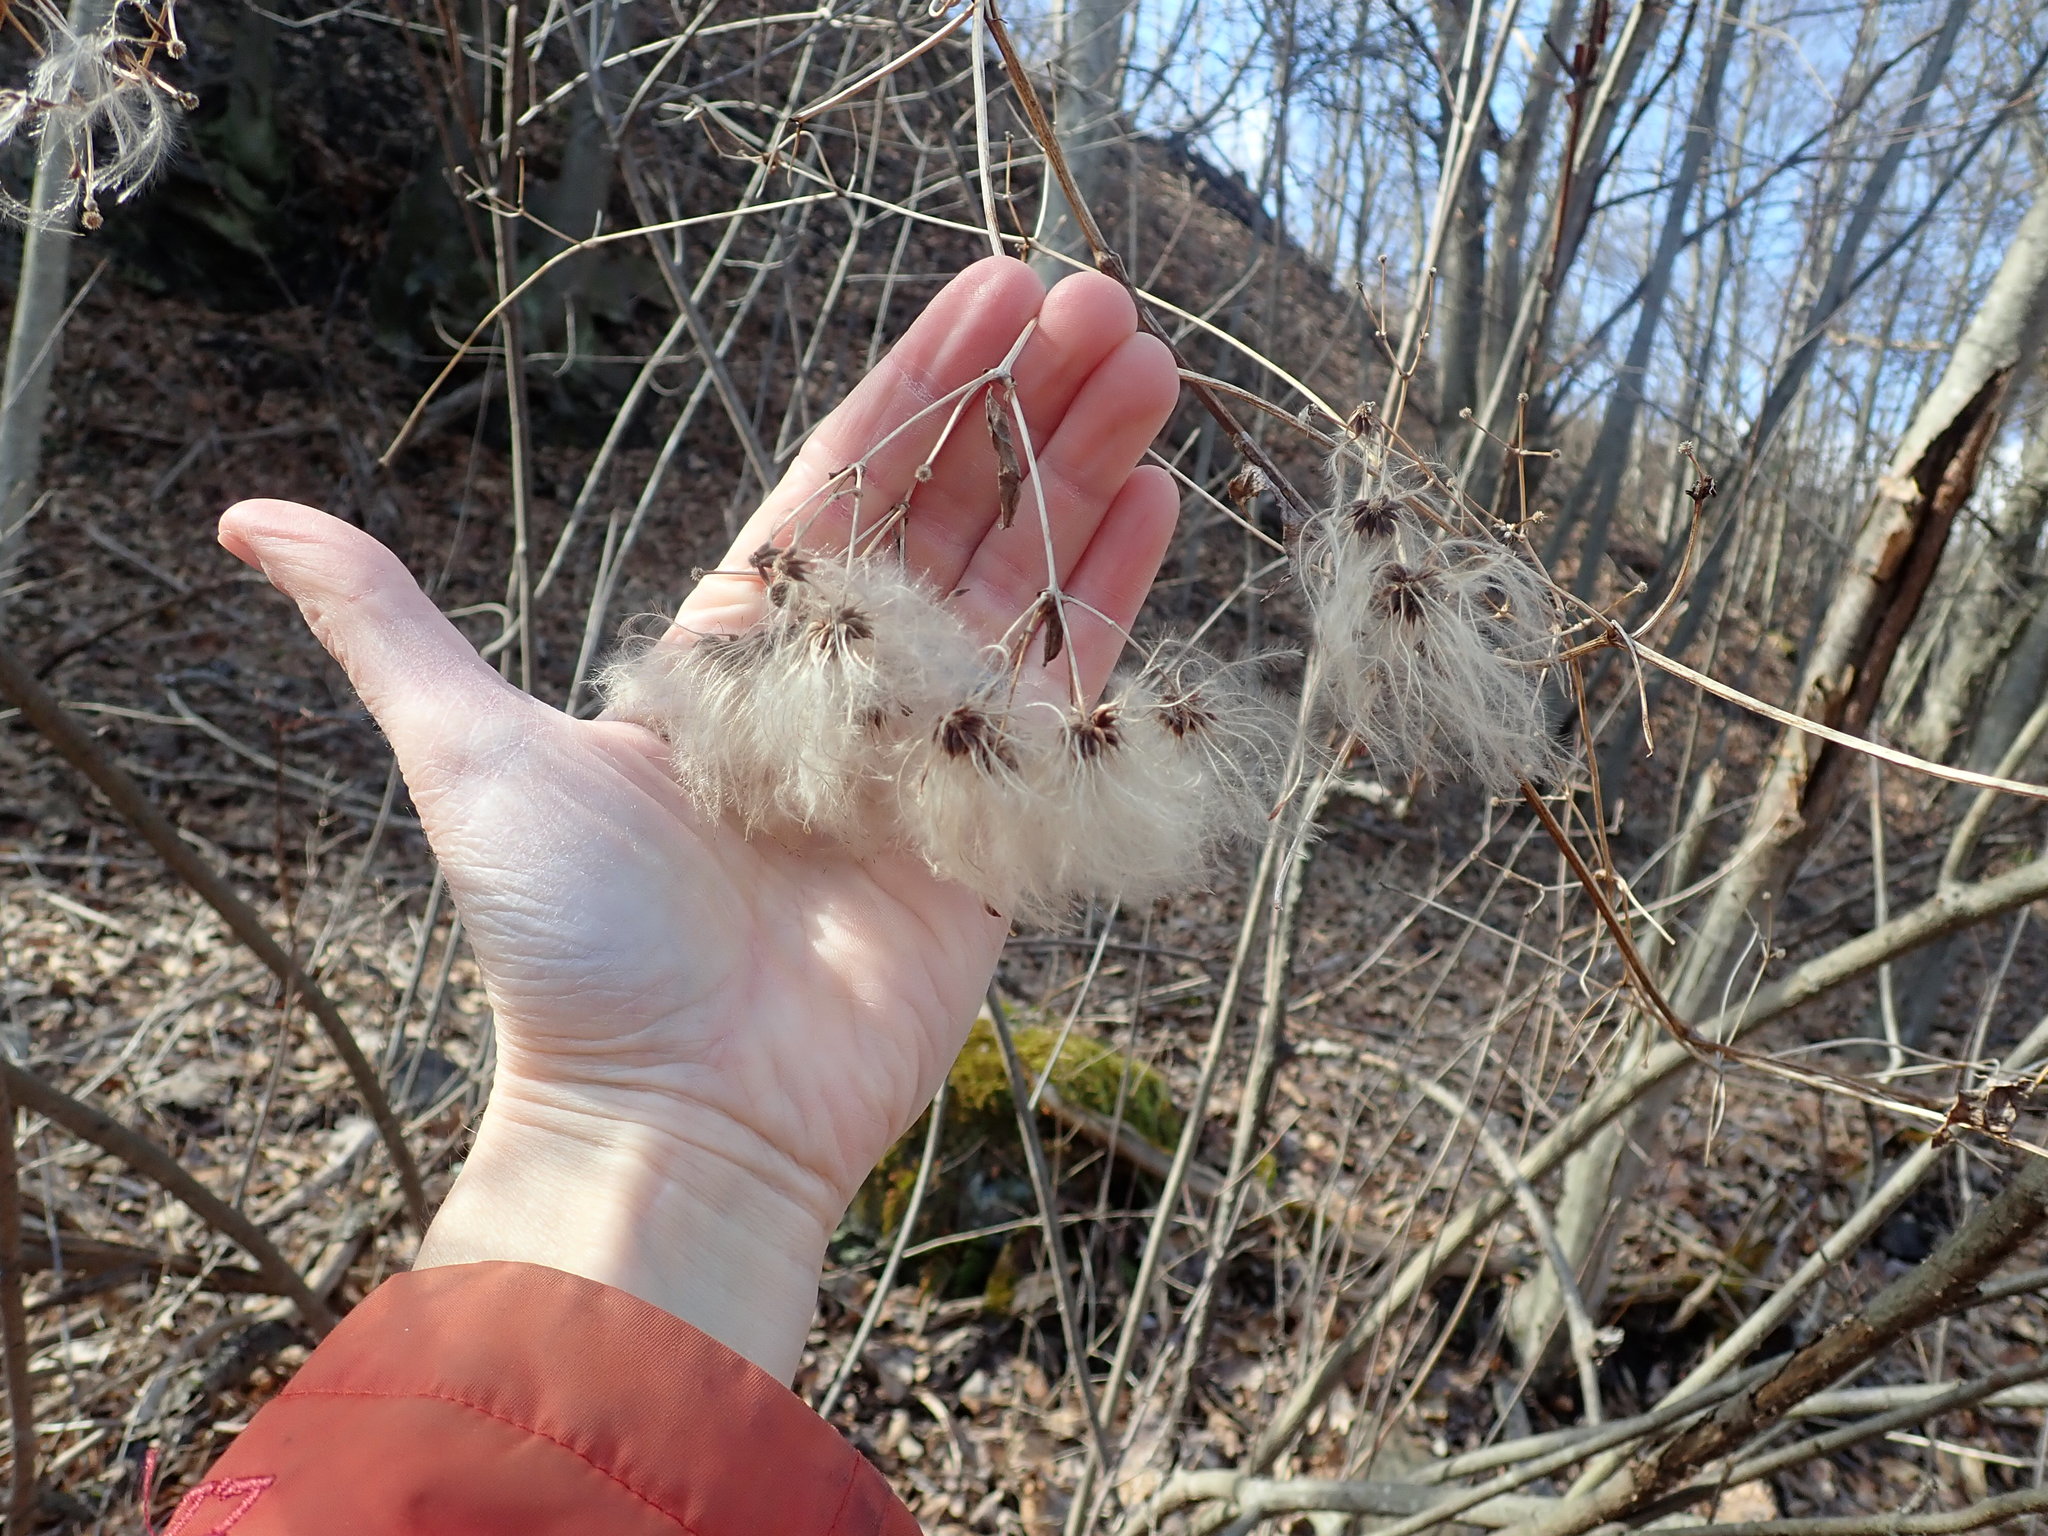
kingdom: Plantae
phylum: Tracheophyta
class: Magnoliopsida
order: Ranunculales
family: Ranunculaceae
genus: Clematis
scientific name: Clematis virginiana
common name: Virgin's-bower
